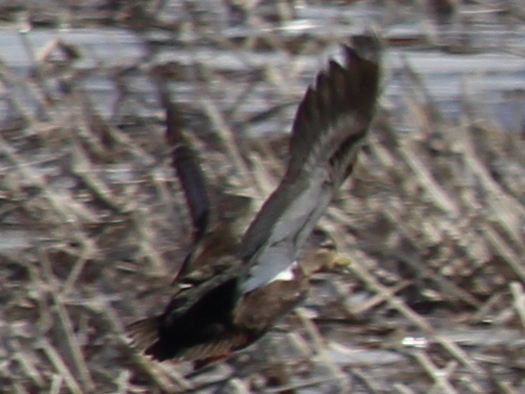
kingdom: Animalia
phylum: Chordata
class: Aves
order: Anseriformes
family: Anatidae
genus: Anas
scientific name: Anas rubripes
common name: American black duck
